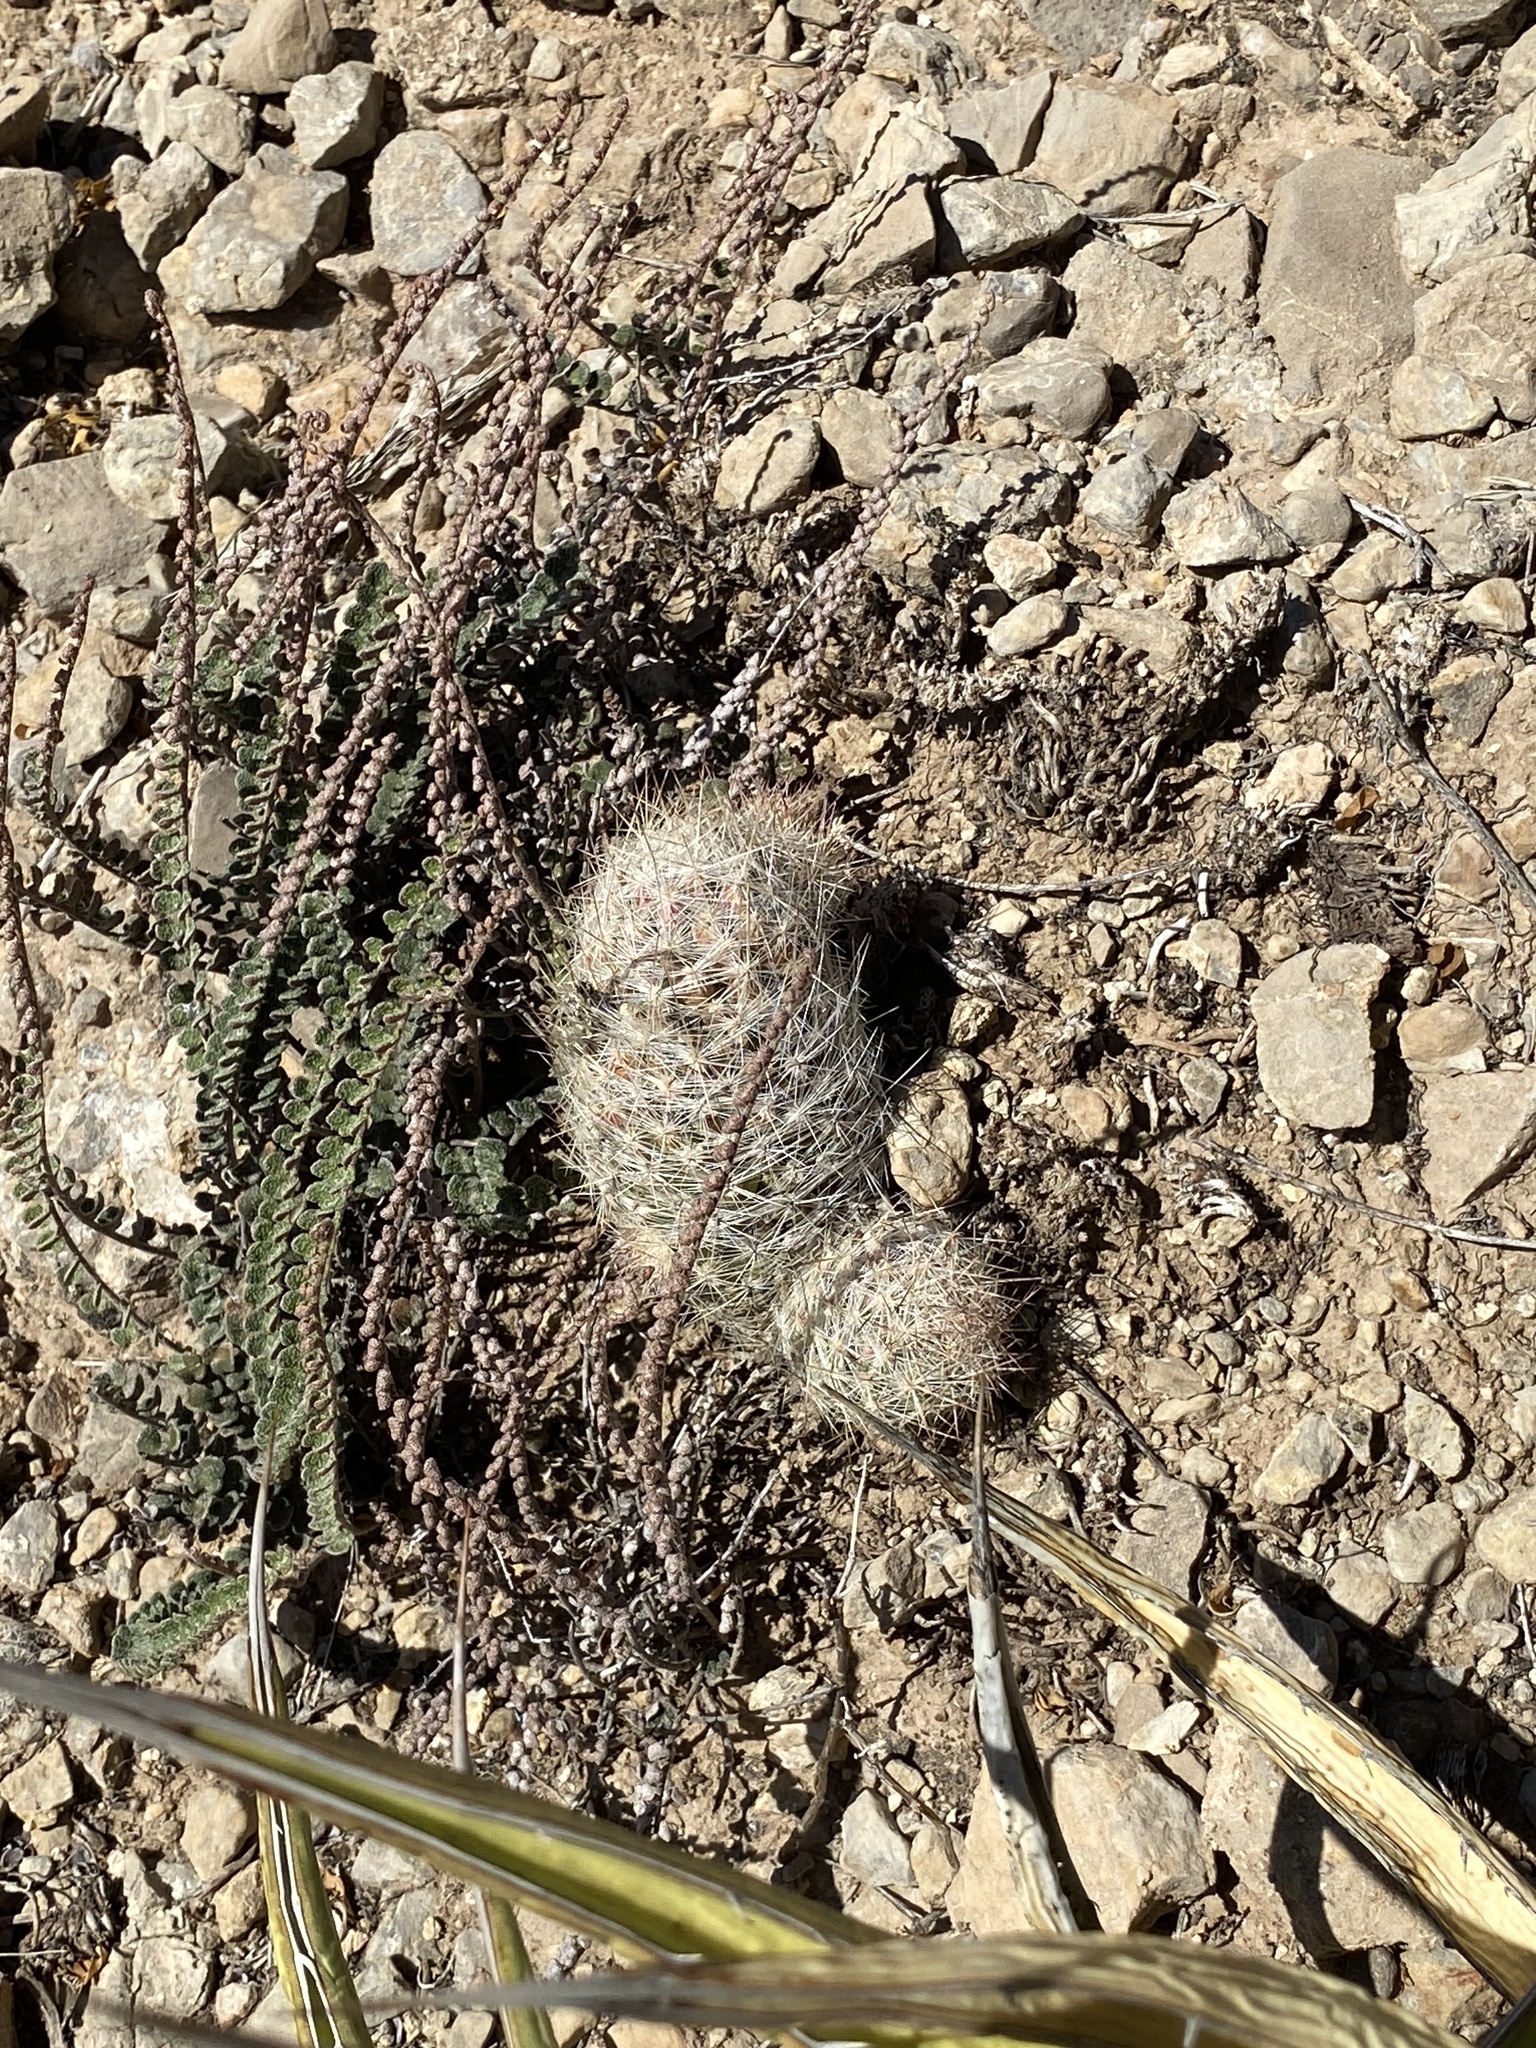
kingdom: Plantae
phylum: Tracheophyta
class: Magnoliopsida
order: Caryophyllales
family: Cactaceae
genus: Pelecyphora
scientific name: Pelecyphora tuberculosa
